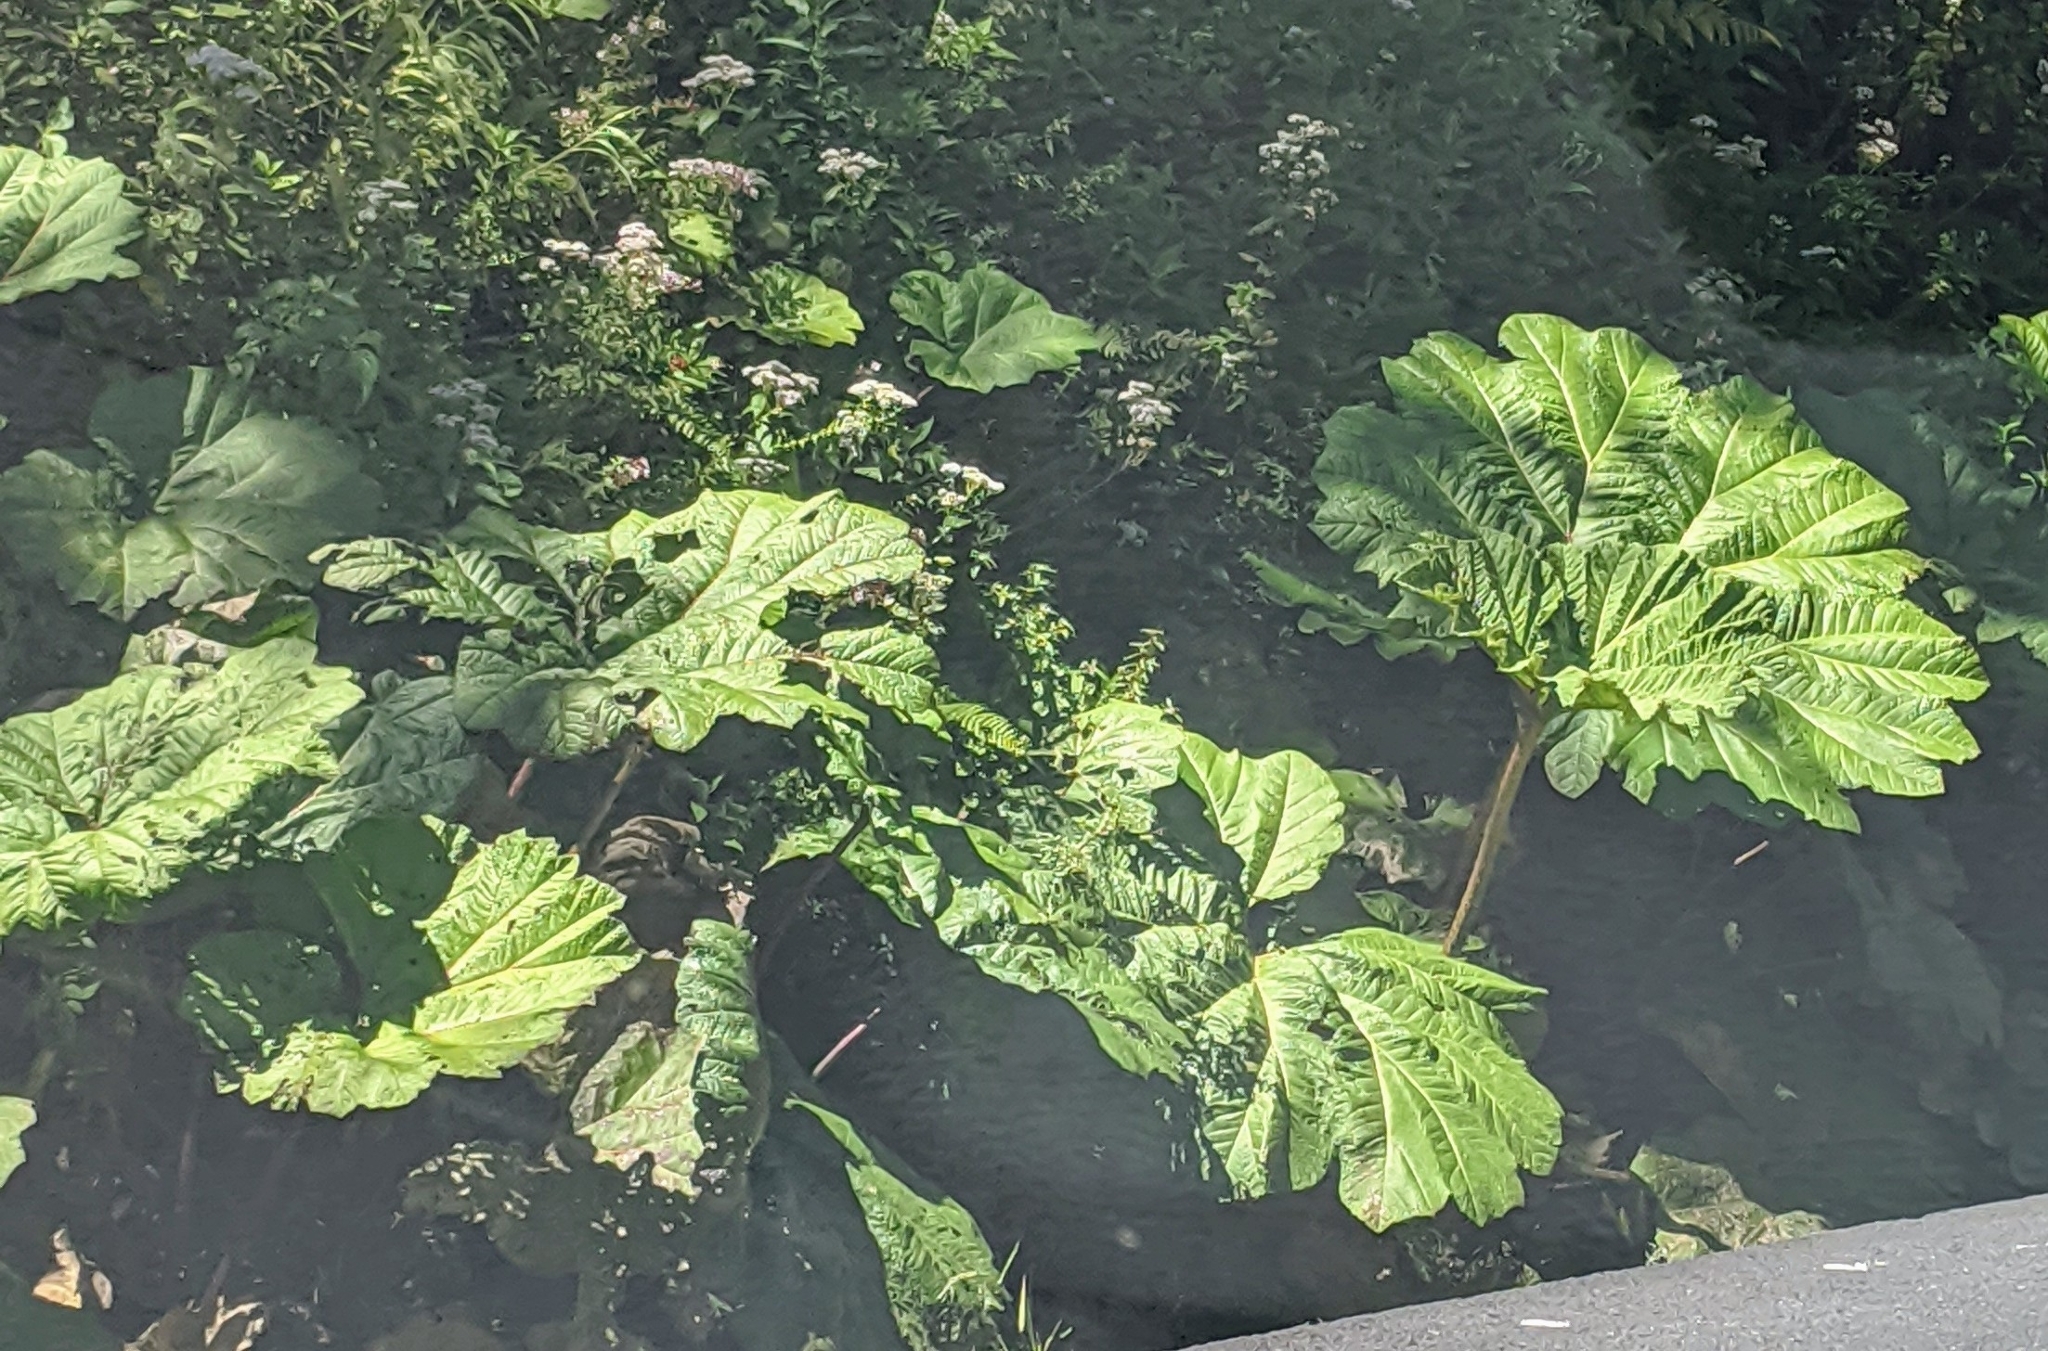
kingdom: Plantae
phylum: Tracheophyta
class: Magnoliopsida
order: Gunnerales
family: Gunneraceae
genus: Gunnera
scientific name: Gunnera insignis
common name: Poorman's umbrella
